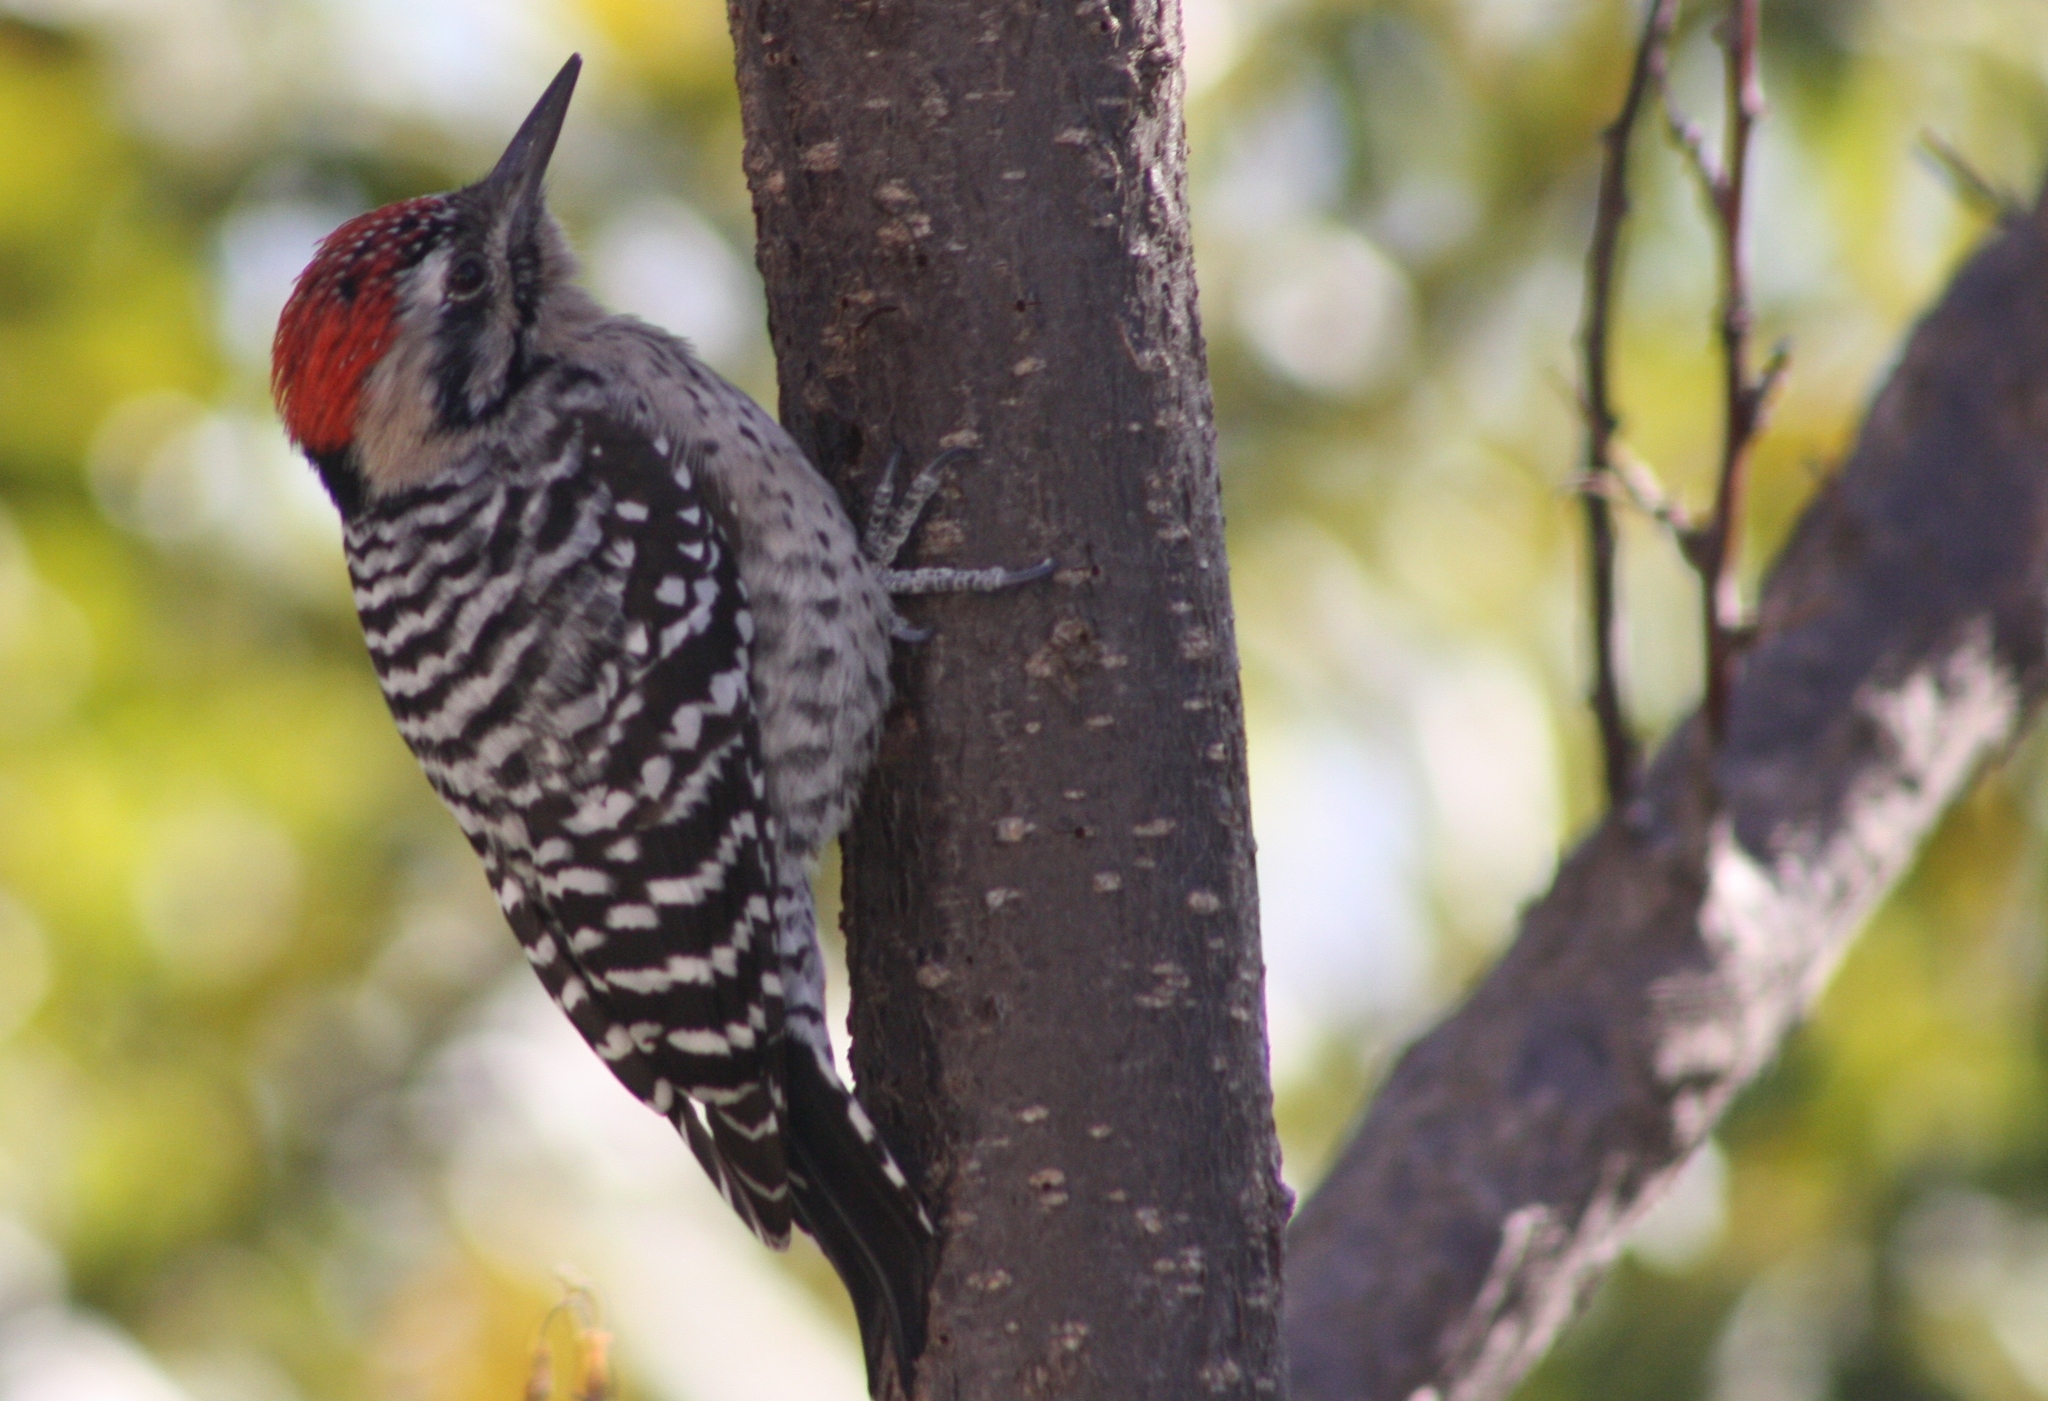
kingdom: Animalia
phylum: Chordata
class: Aves
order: Piciformes
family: Picidae
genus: Dryobates
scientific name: Dryobates scalaris
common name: Ladder-backed woodpecker
